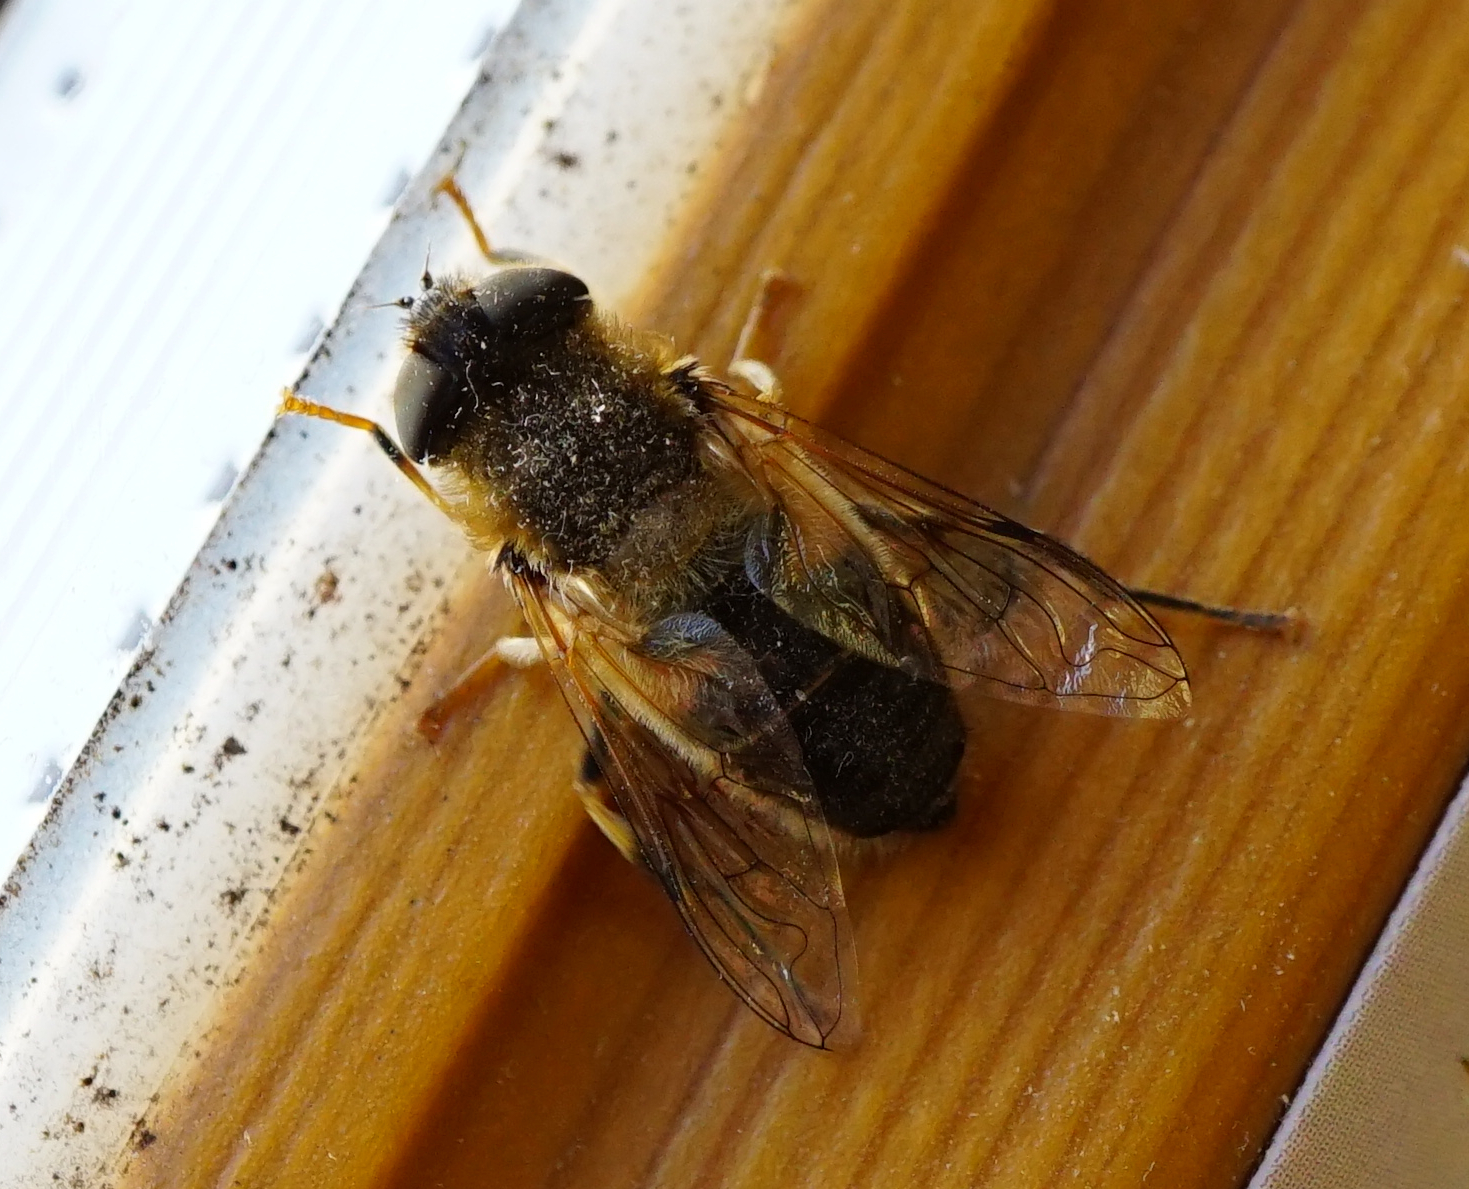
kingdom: Animalia
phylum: Arthropoda
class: Insecta
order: Diptera
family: Syrphidae
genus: Eristalis
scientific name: Eristalis pertinax
